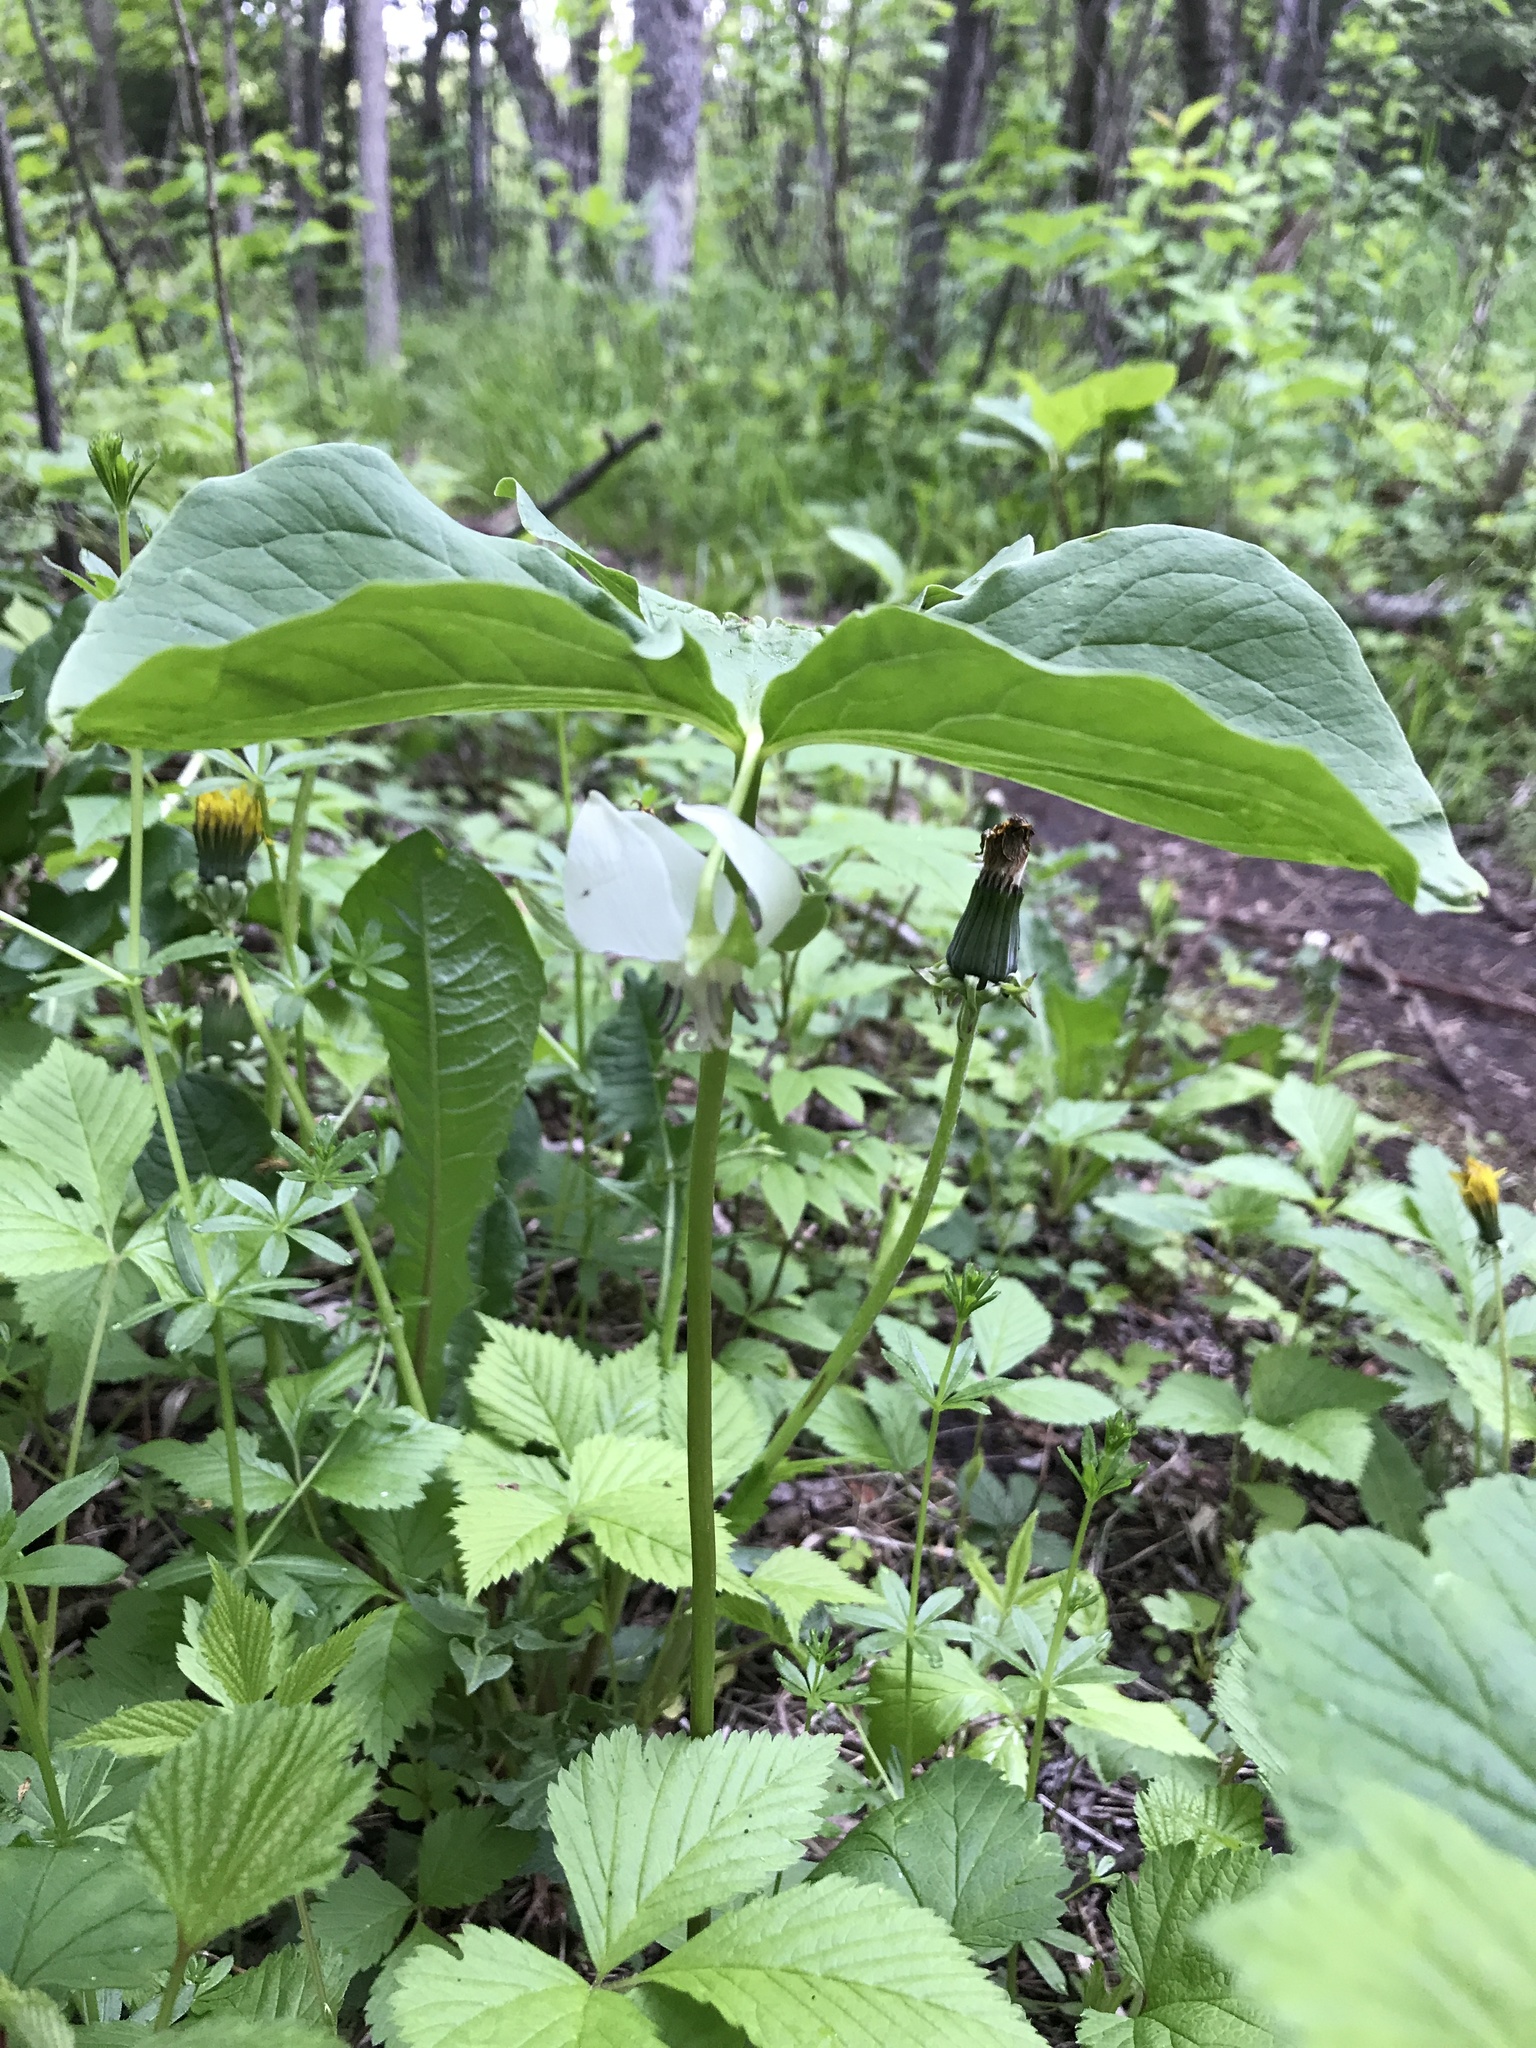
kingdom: Plantae
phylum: Tracheophyta
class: Liliopsida
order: Liliales
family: Melanthiaceae
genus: Trillium
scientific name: Trillium cernuum
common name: Nodding trillium
